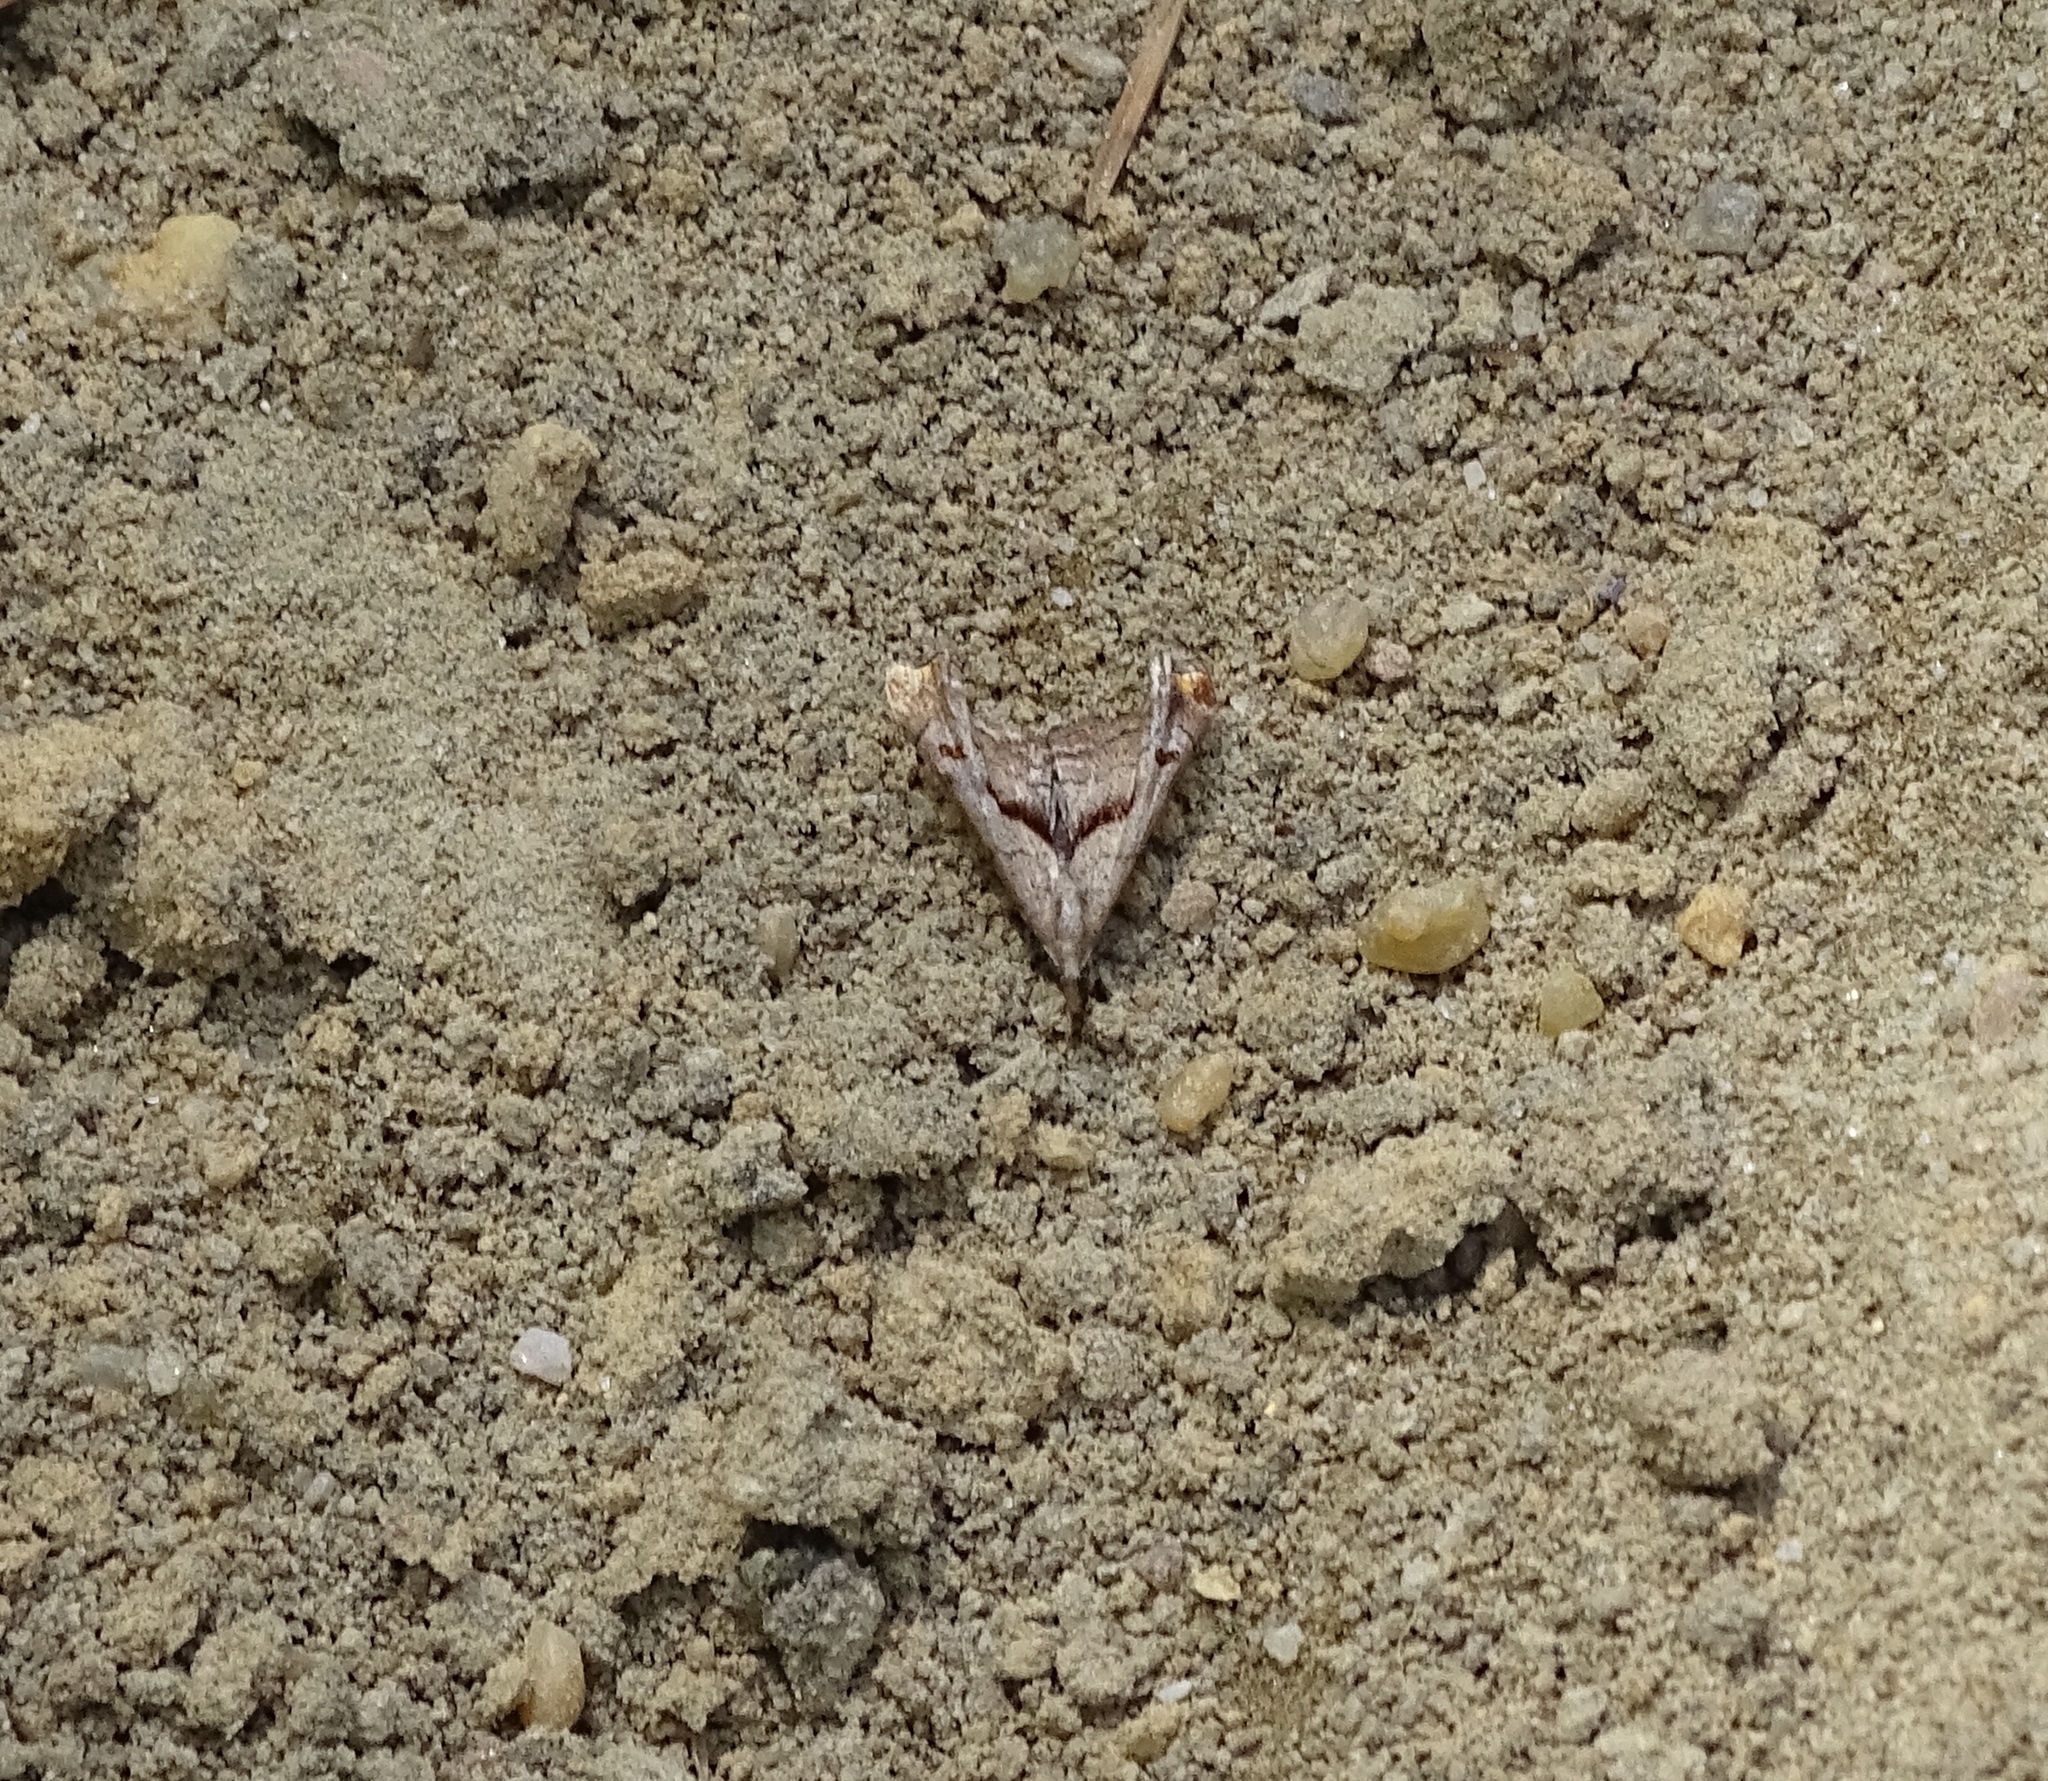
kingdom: Animalia
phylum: Arthropoda
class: Insecta
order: Lepidoptera
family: Erebidae
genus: Palthis
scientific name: Palthis angulalis
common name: Dark-spotted palthis moth
